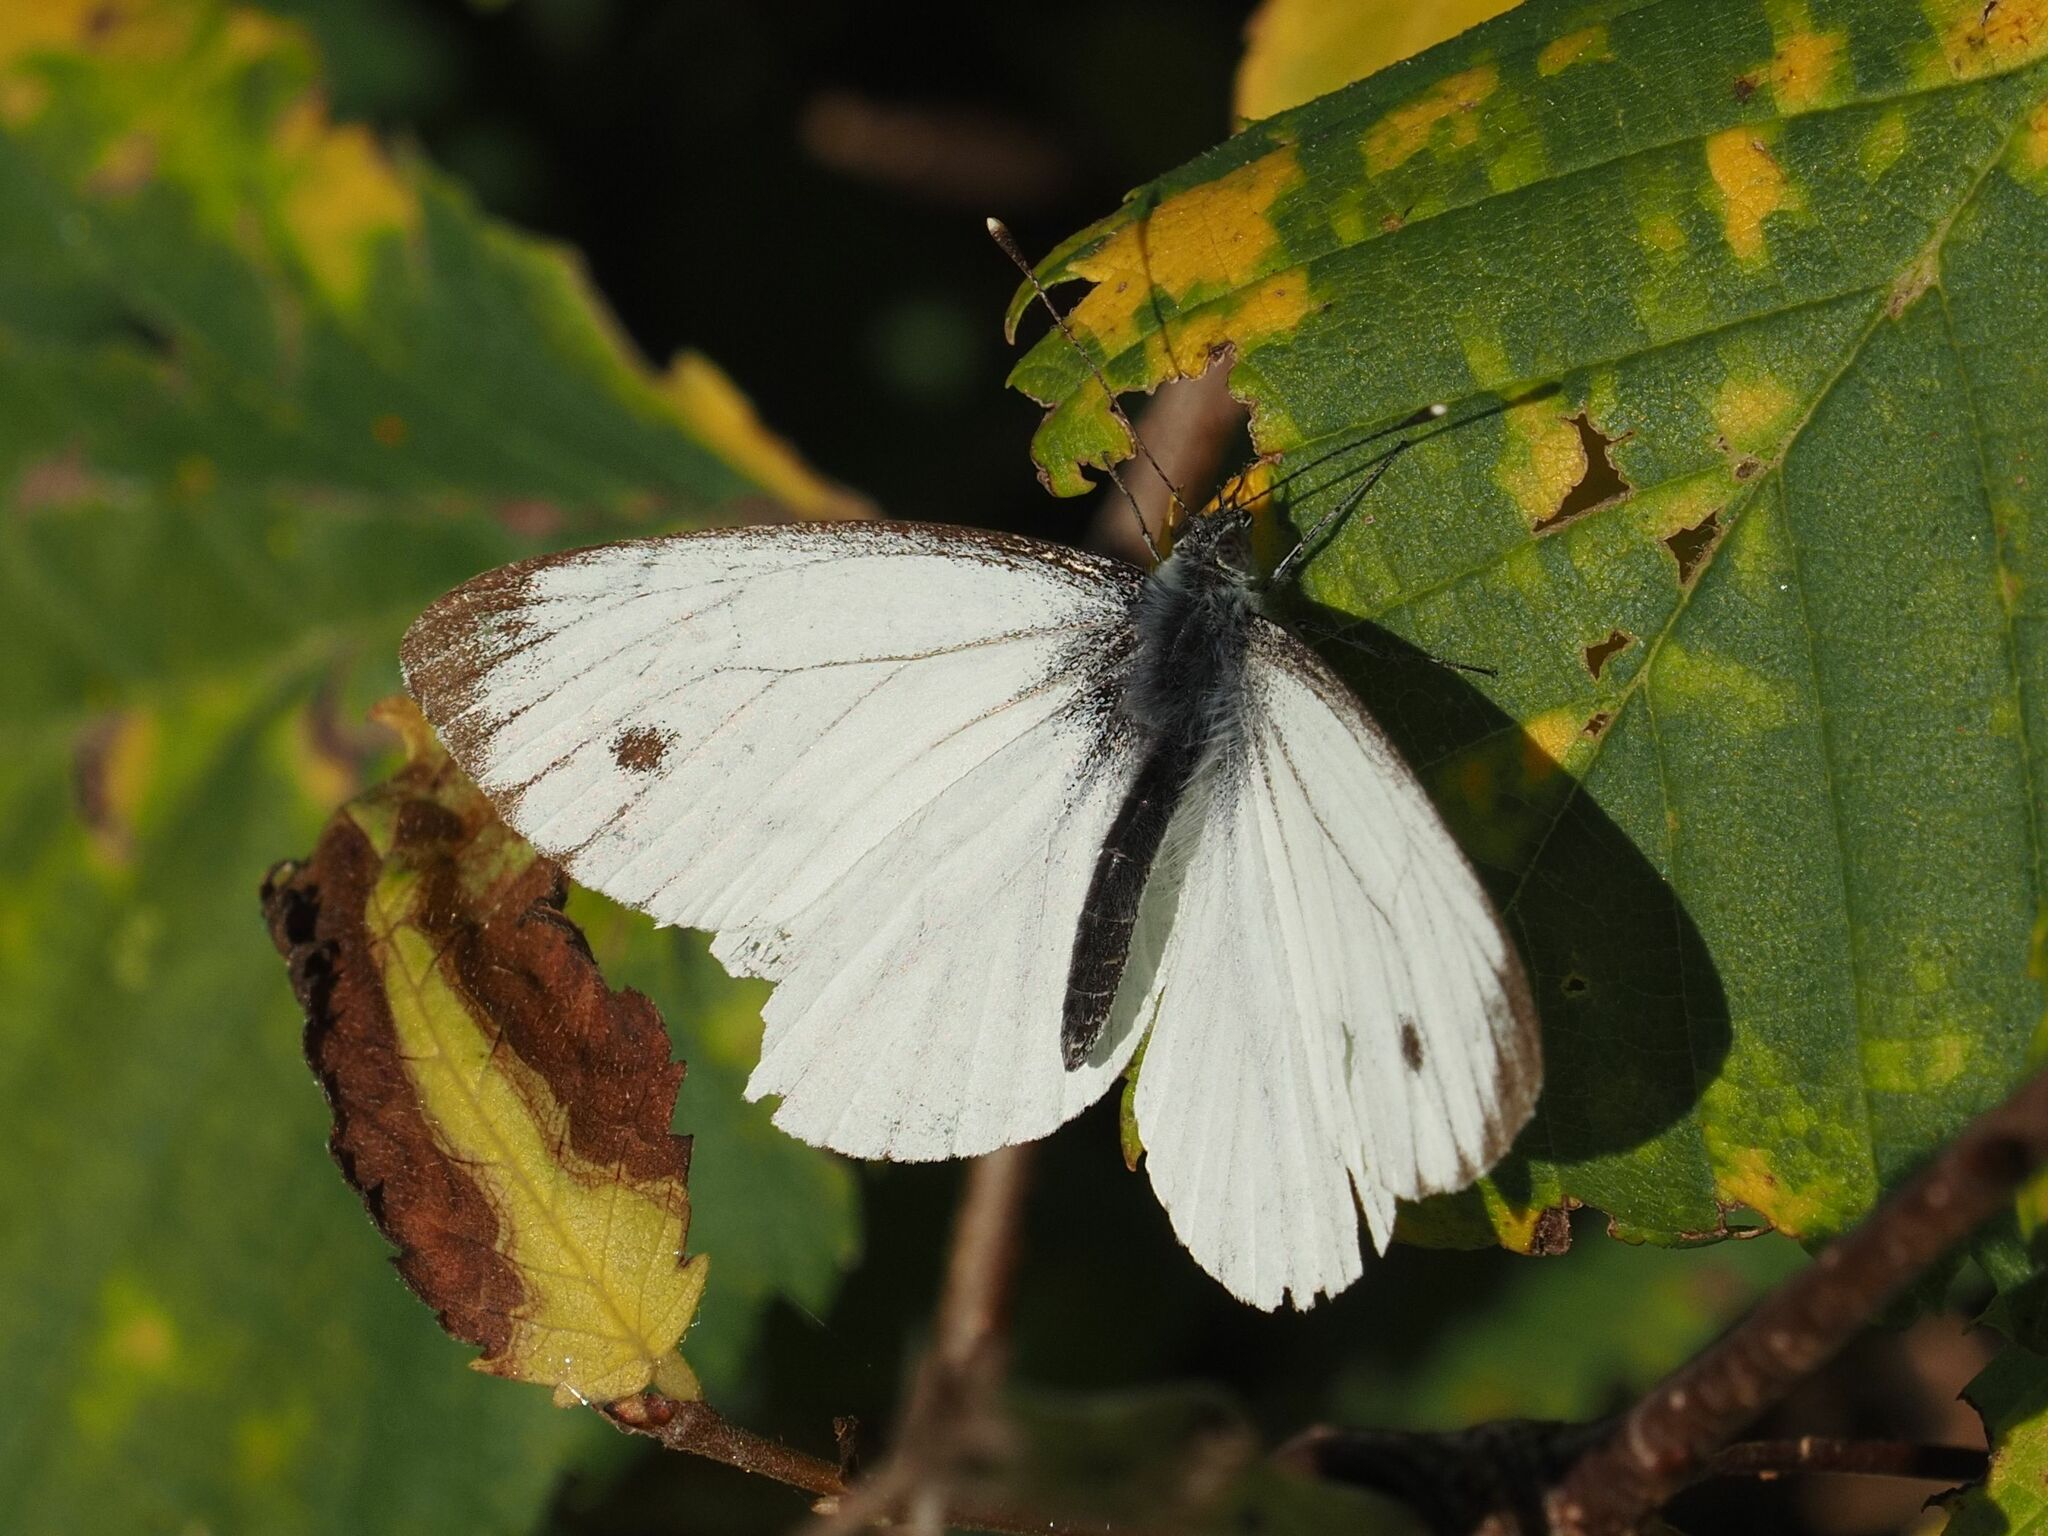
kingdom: Animalia
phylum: Arthropoda
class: Insecta
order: Lepidoptera
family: Pieridae
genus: Pieris
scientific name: Pieris napi
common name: Green-veined white
